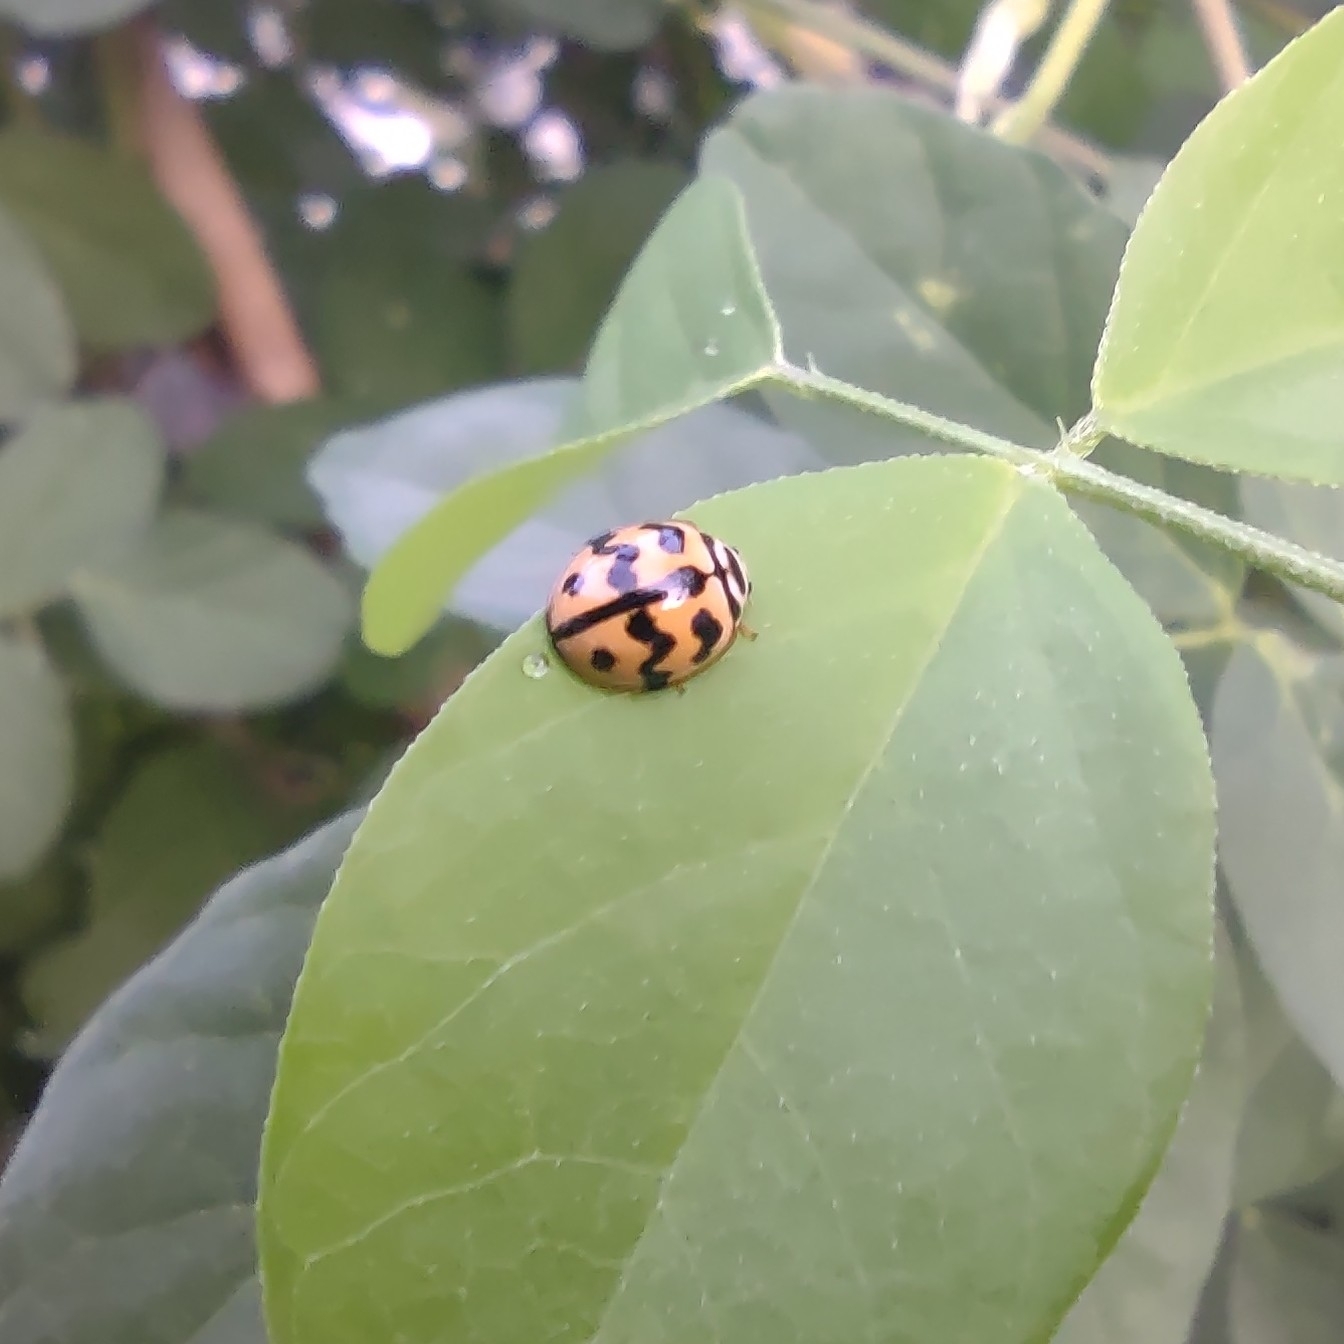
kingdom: Animalia
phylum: Arthropoda
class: Insecta
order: Coleoptera
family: Coccinellidae
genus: Cheilomenes
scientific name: Cheilomenes sexmaculata
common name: Ladybird beetle
